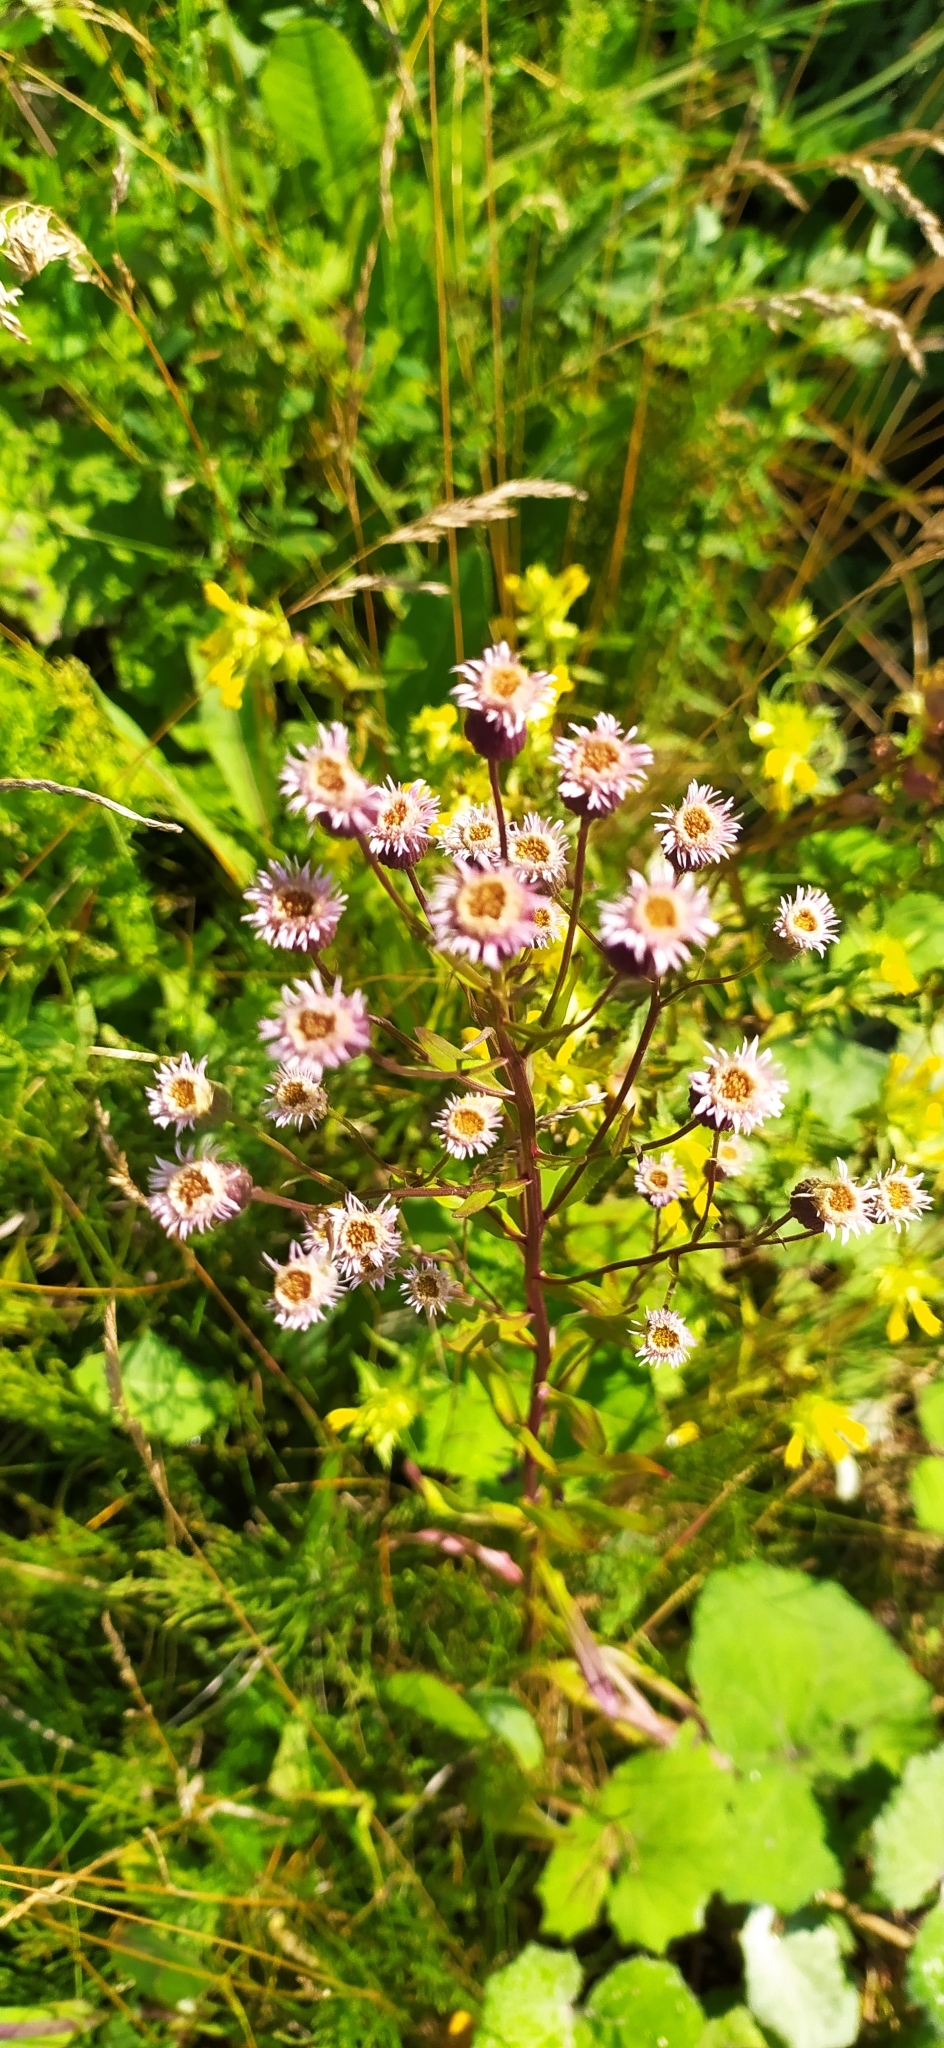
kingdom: Plantae
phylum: Tracheophyta
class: Magnoliopsida
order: Asterales
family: Asteraceae
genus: Erigeron
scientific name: Erigeron acris
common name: Blue fleabane
